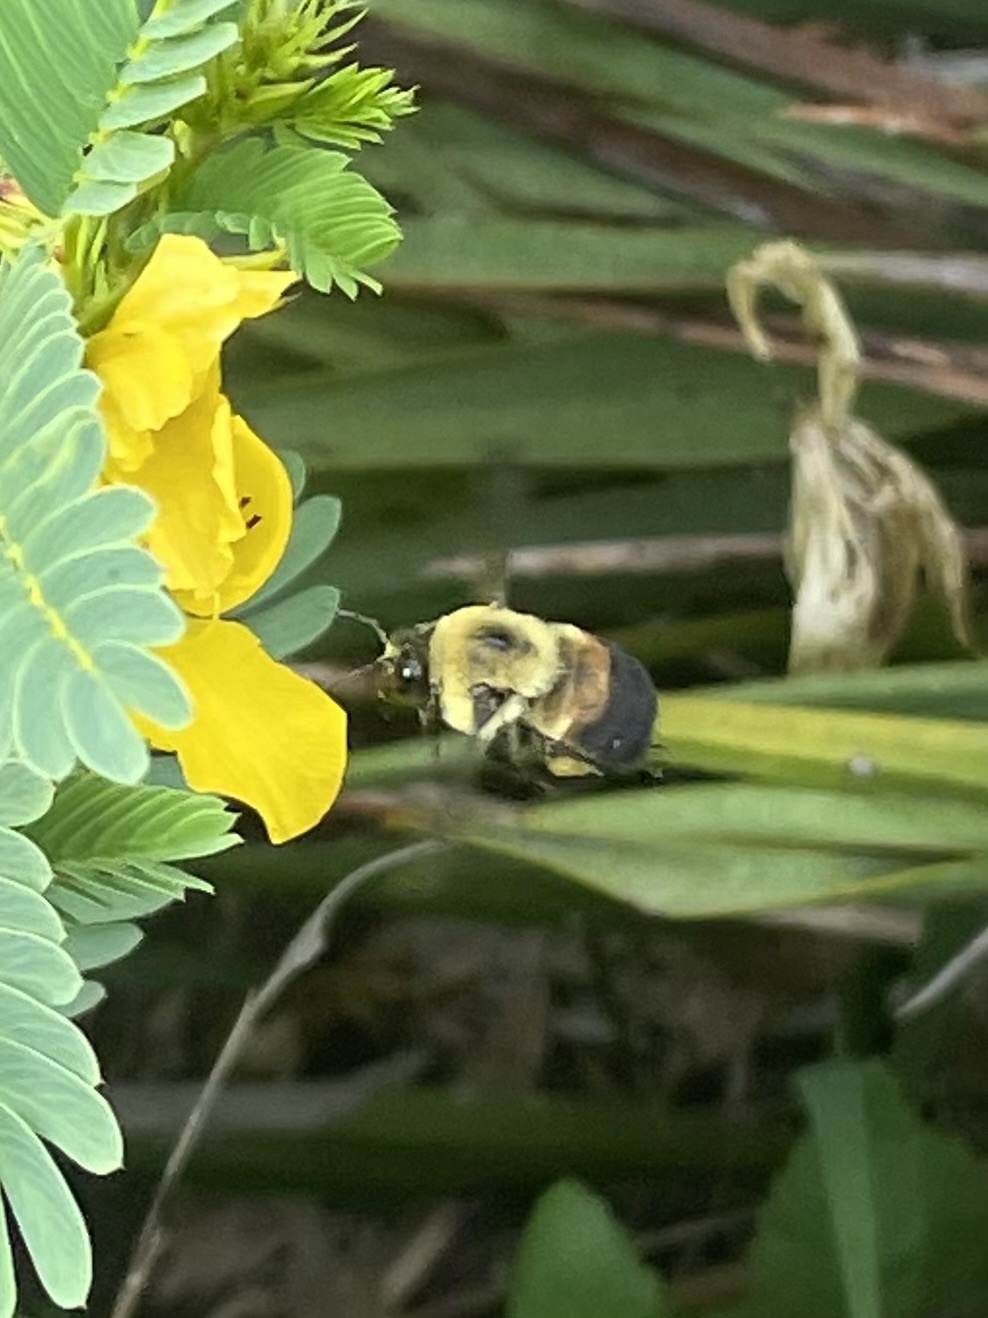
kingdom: Animalia
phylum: Arthropoda
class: Insecta
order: Hymenoptera
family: Apidae
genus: Bombus
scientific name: Bombus griseocollis
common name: Brown-belted bumble bee
